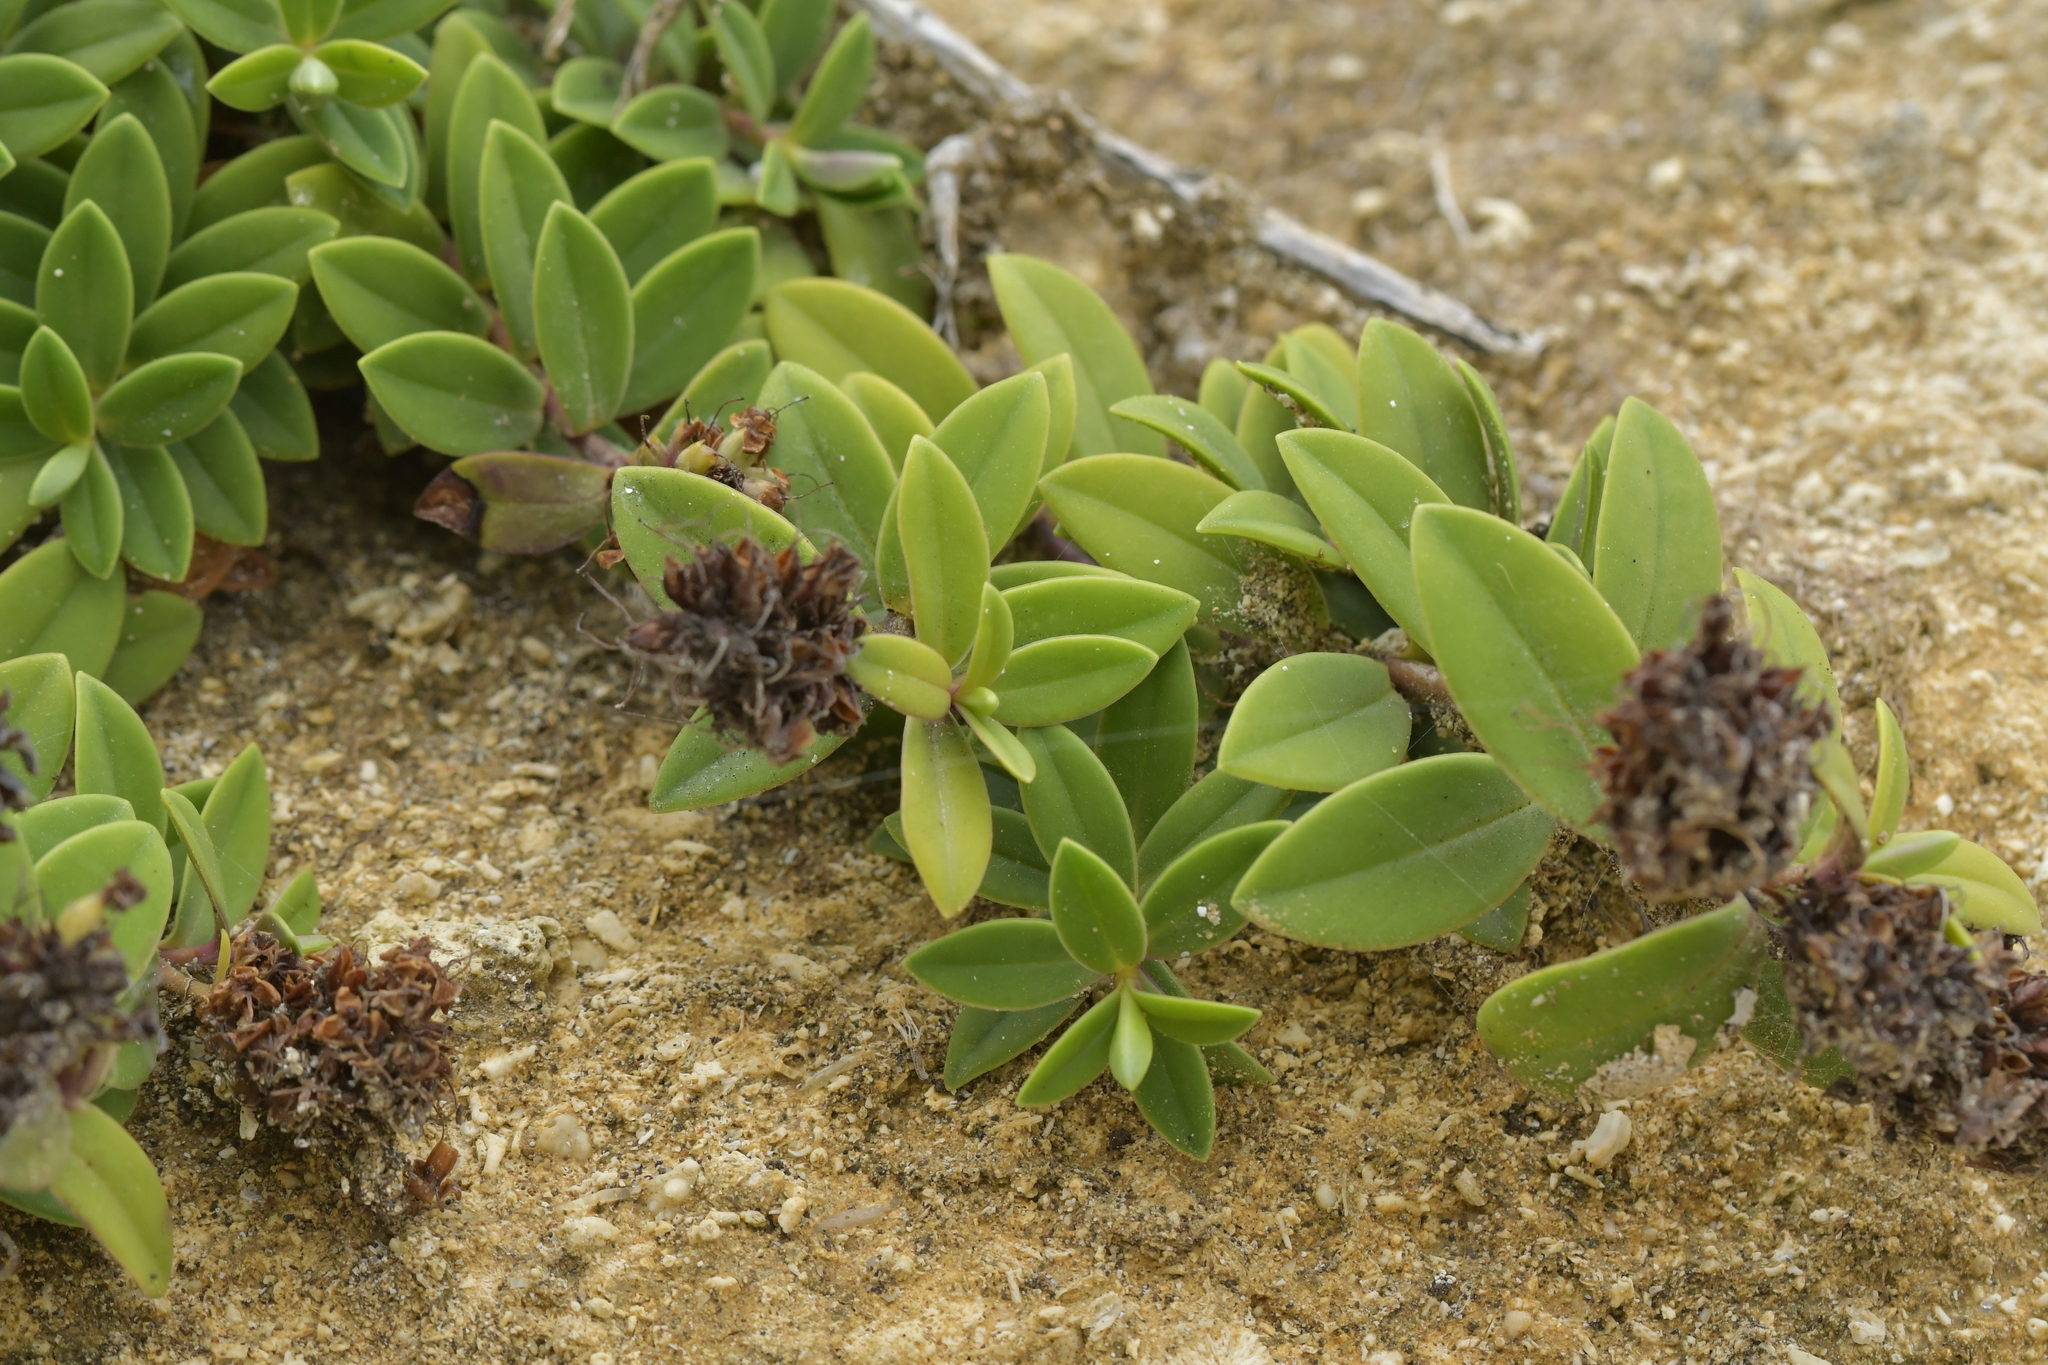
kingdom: Plantae
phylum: Tracheophyta
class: Magnoliopsida
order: Lamiales
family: Plantaginaceae
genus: Veronica
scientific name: Veronica chathamica
